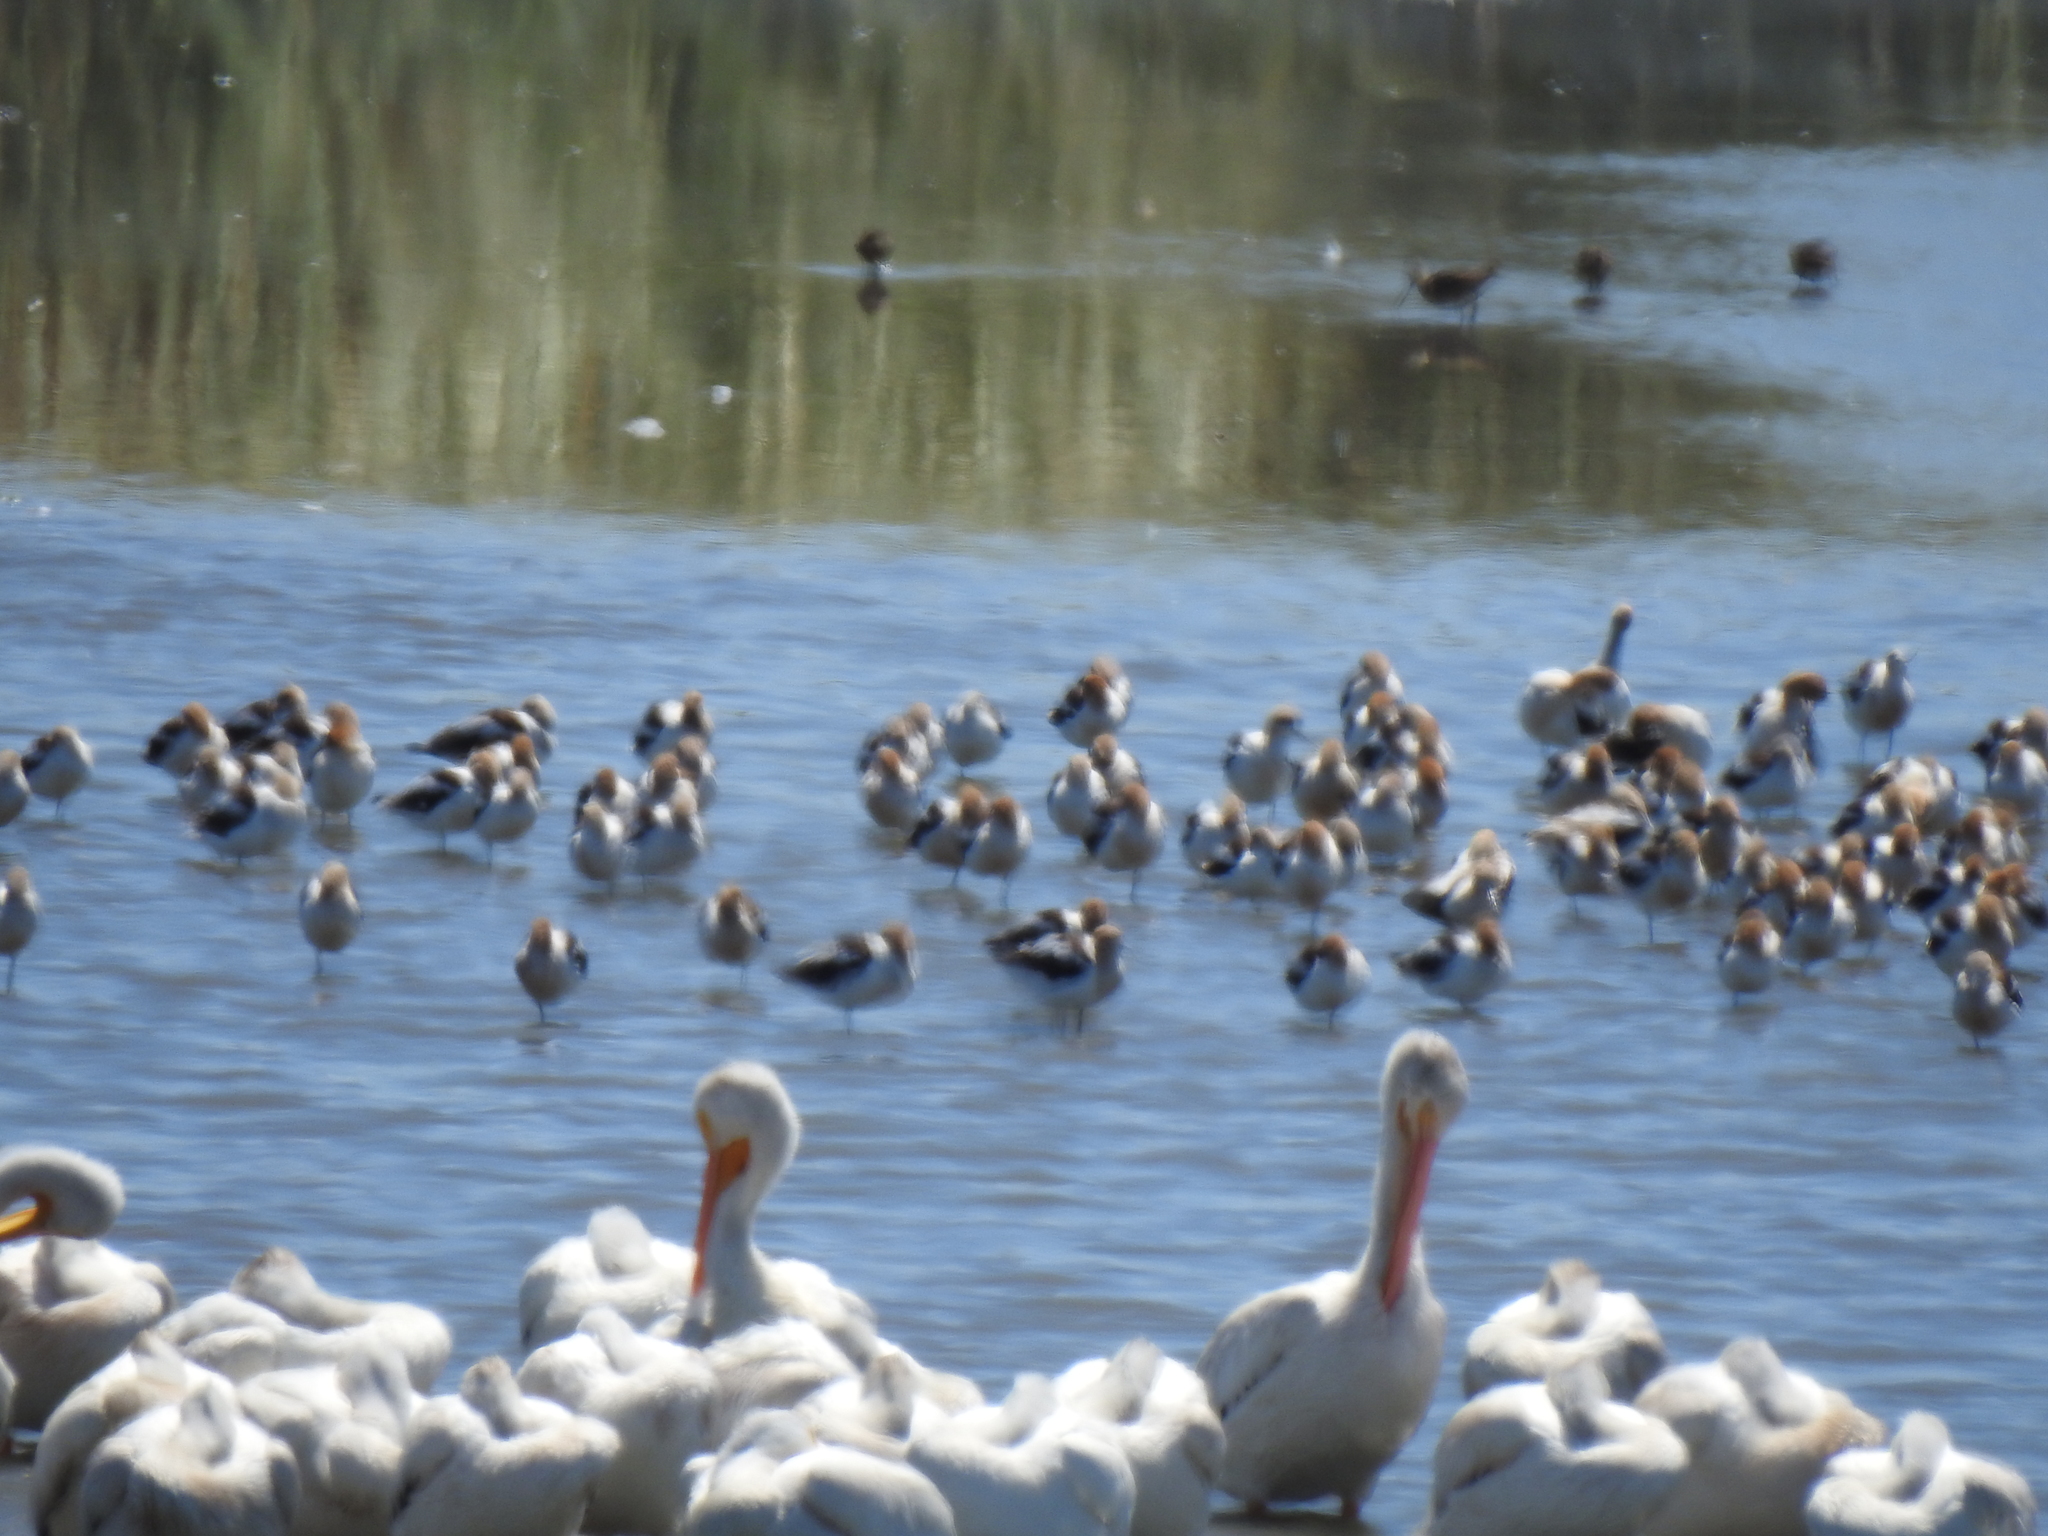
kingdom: Animalia
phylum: Chordata
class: Aves
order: Charadriiformes
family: Recurvirostridae
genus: Recurvirostra
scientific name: Recurvirostra americana
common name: American avocet
